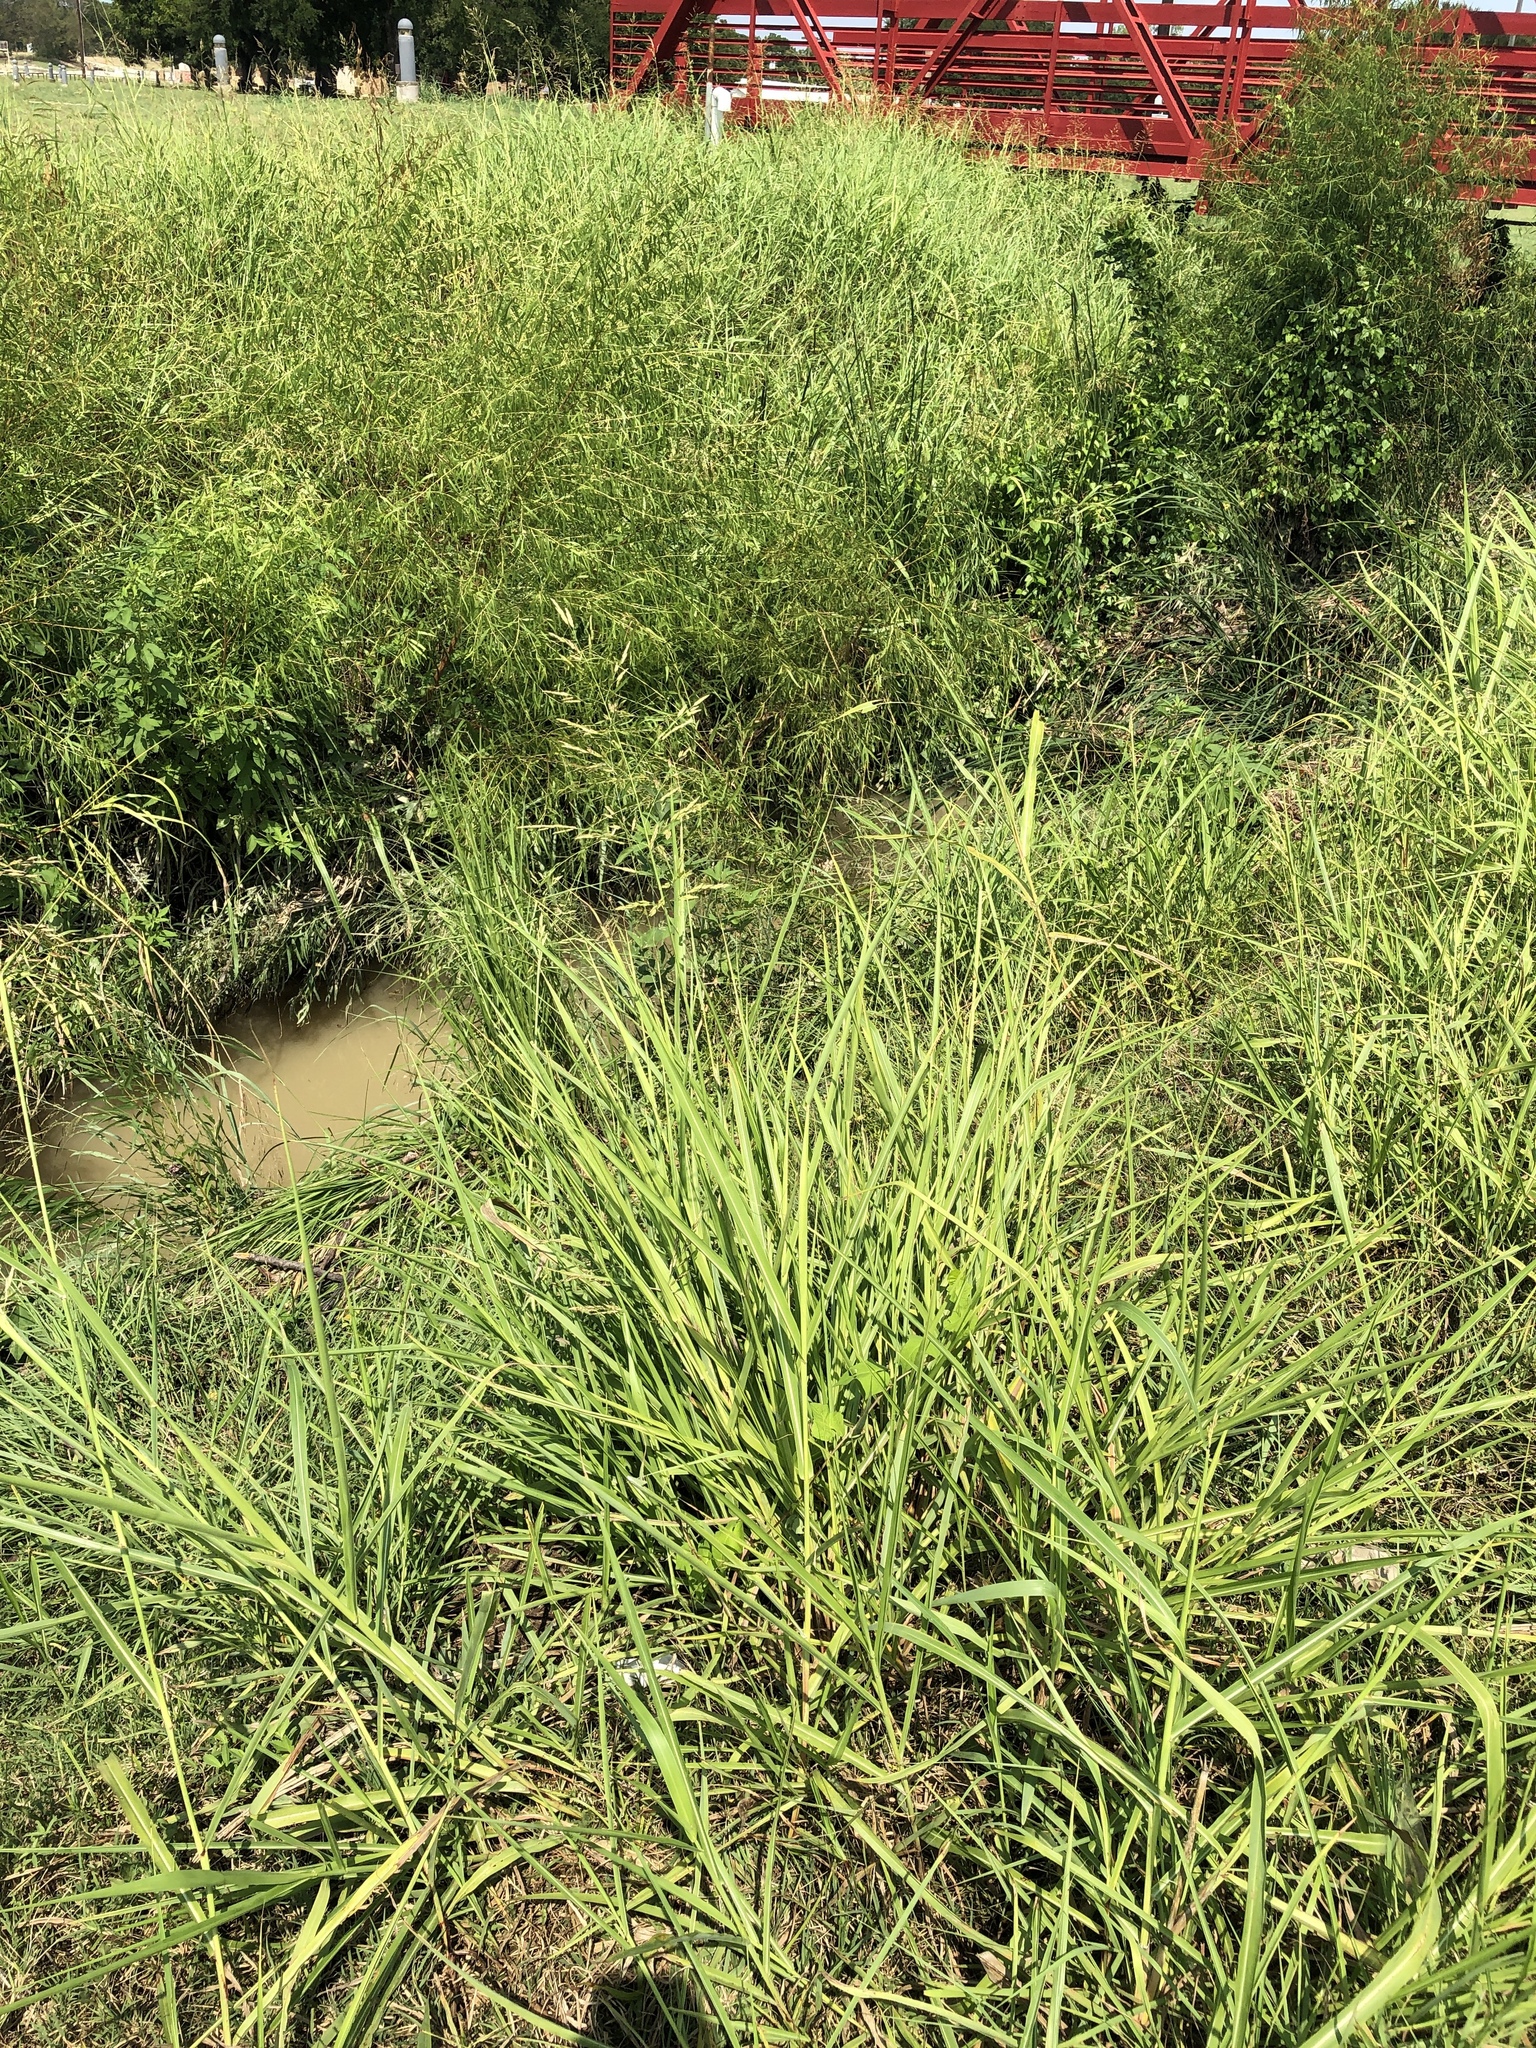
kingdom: Plantae
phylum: Tracheophyta
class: Liliopsida
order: Poales
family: Poaceae
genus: Sorghum
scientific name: Sorghum halepense
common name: Johnson-grass
